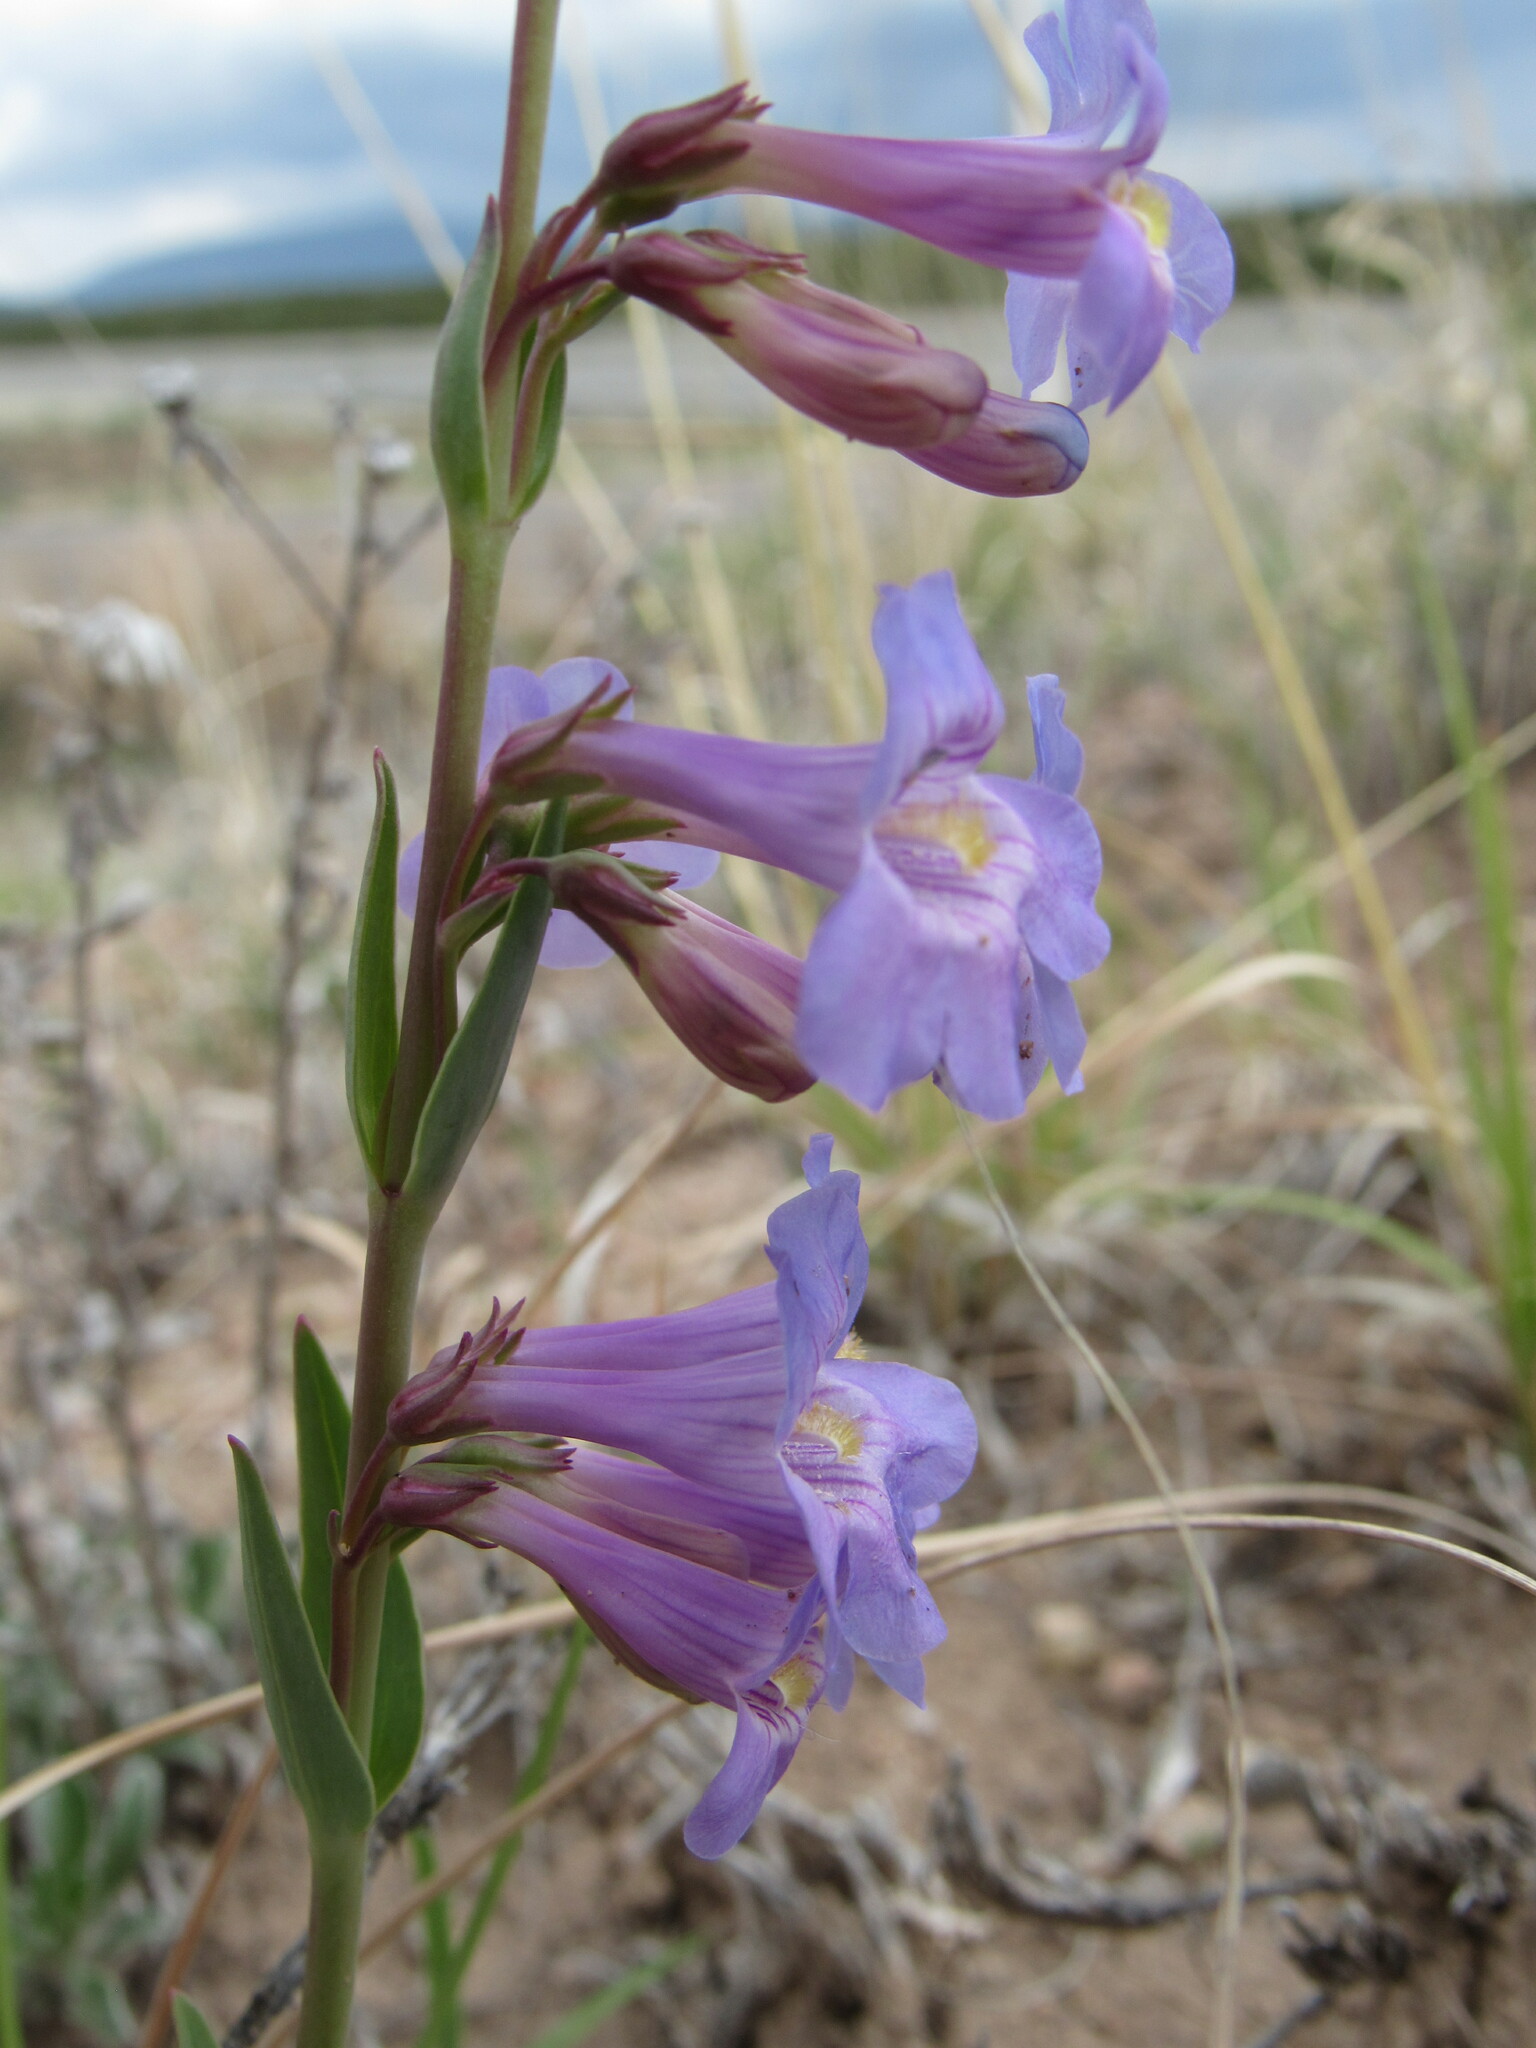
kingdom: Plantae
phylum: Tracheophyta
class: Magnoliopsida
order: Lamiales
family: Plantaginaceae
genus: Penstemon
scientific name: Penstemon secundiflorus
